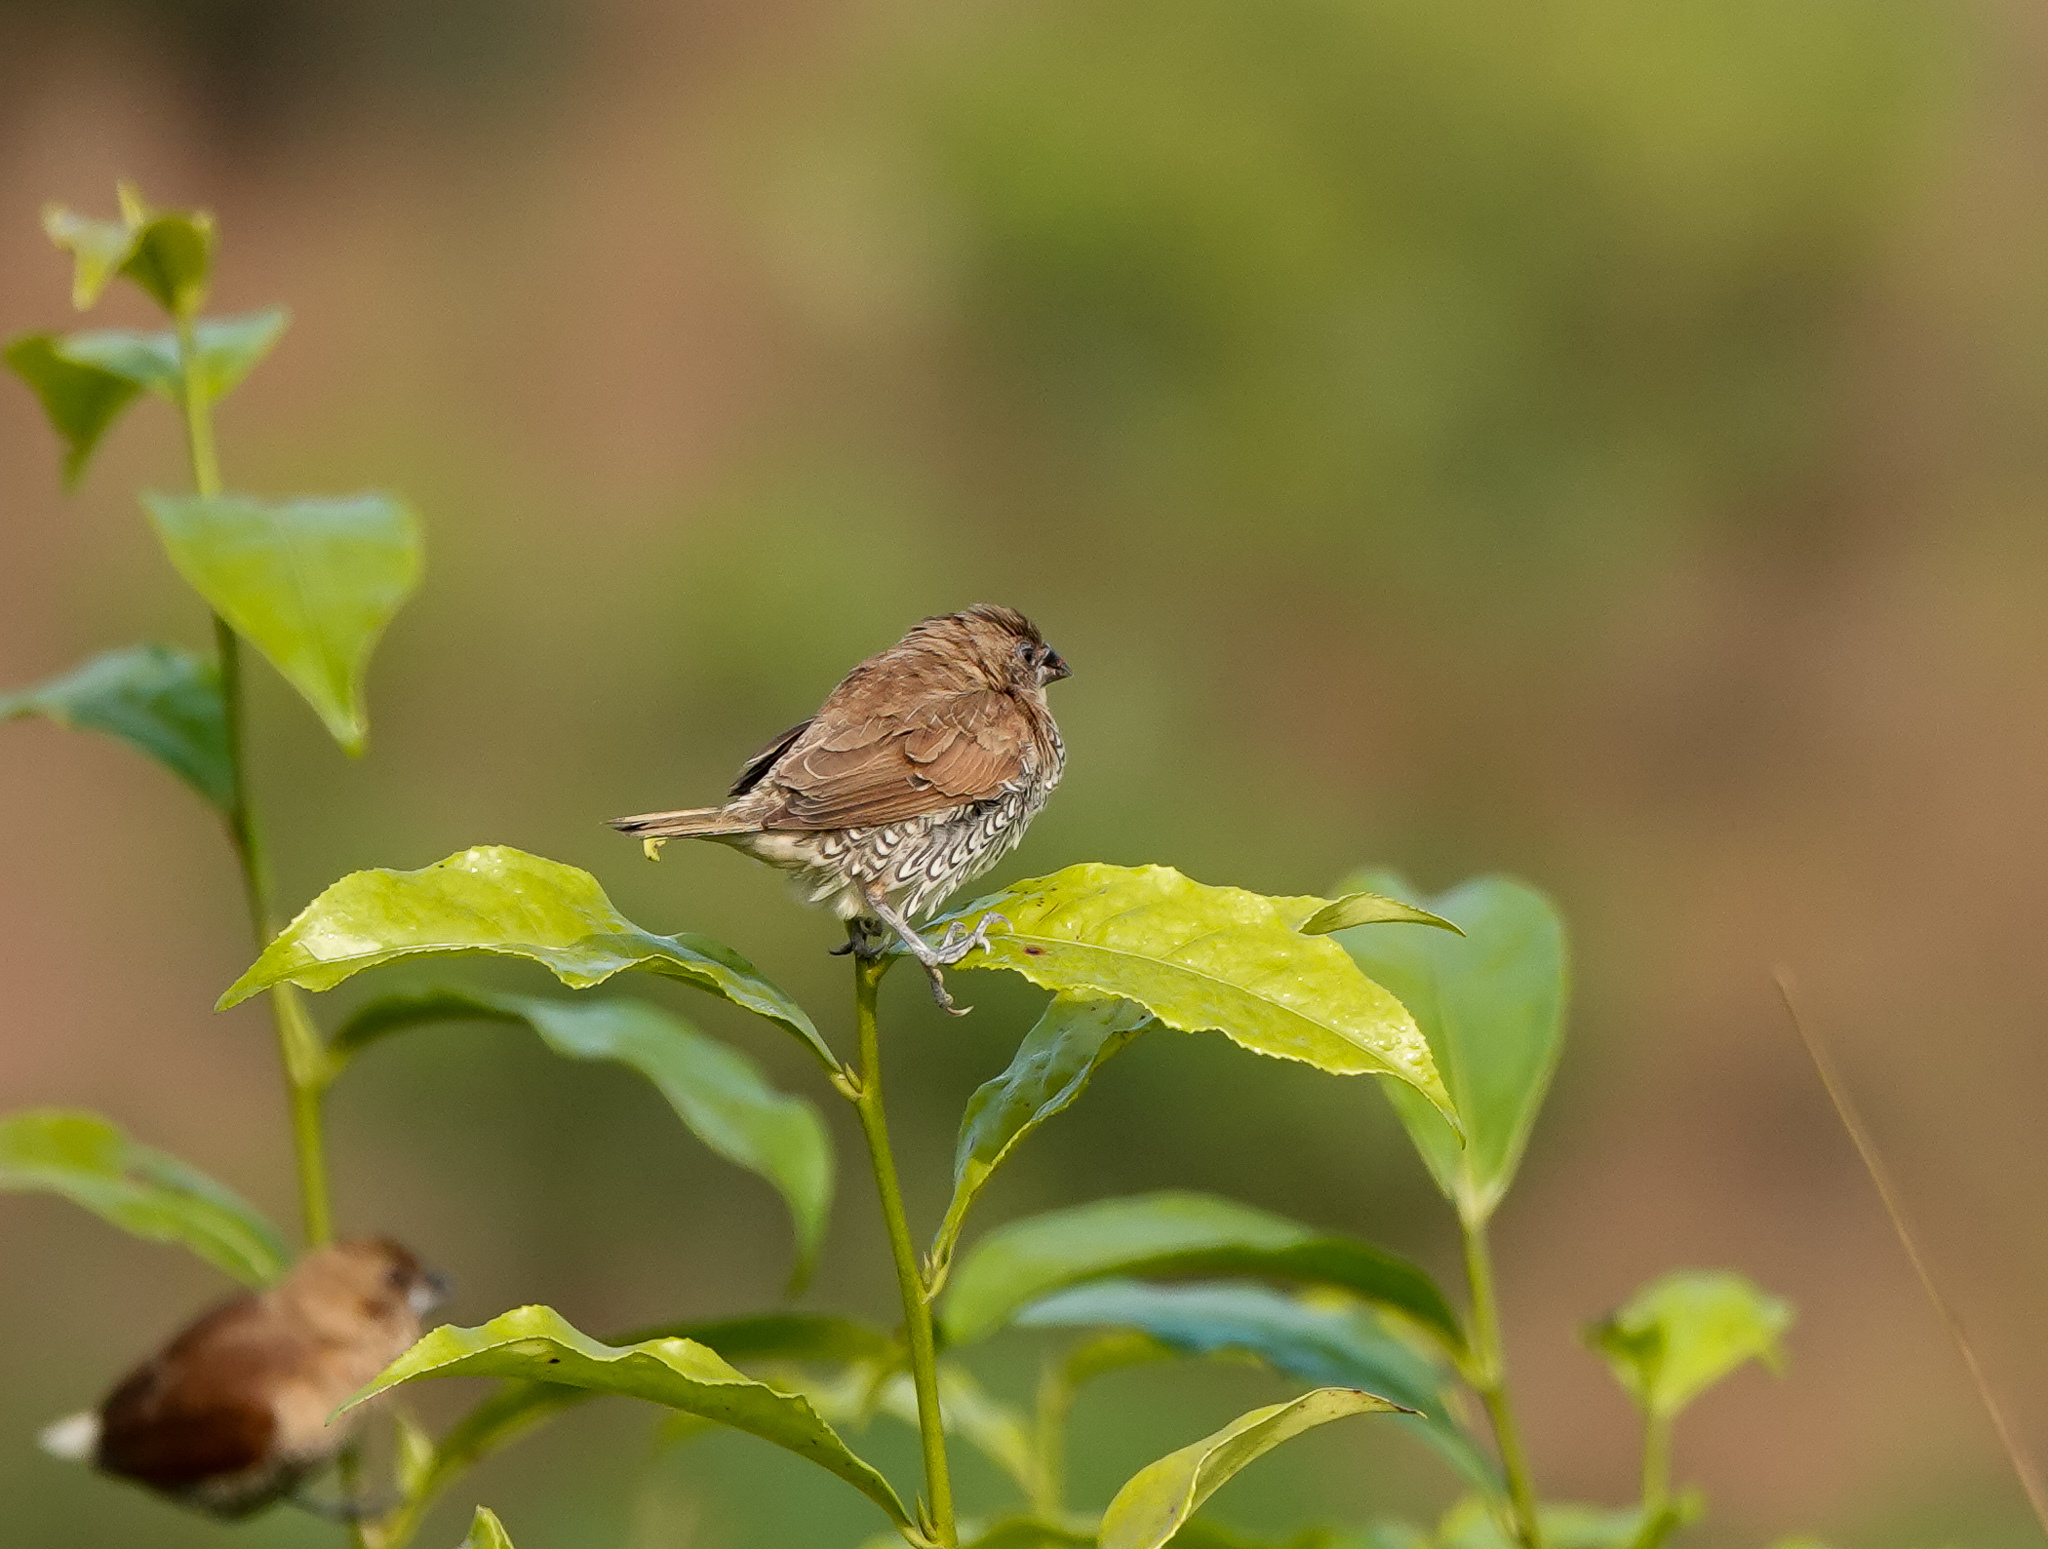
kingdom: Animalia
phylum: Chordata
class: Aves
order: Passeriformes
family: Estrildidae
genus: Lonchura
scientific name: Lonchura punctulata
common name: Scaly-breasted munia
